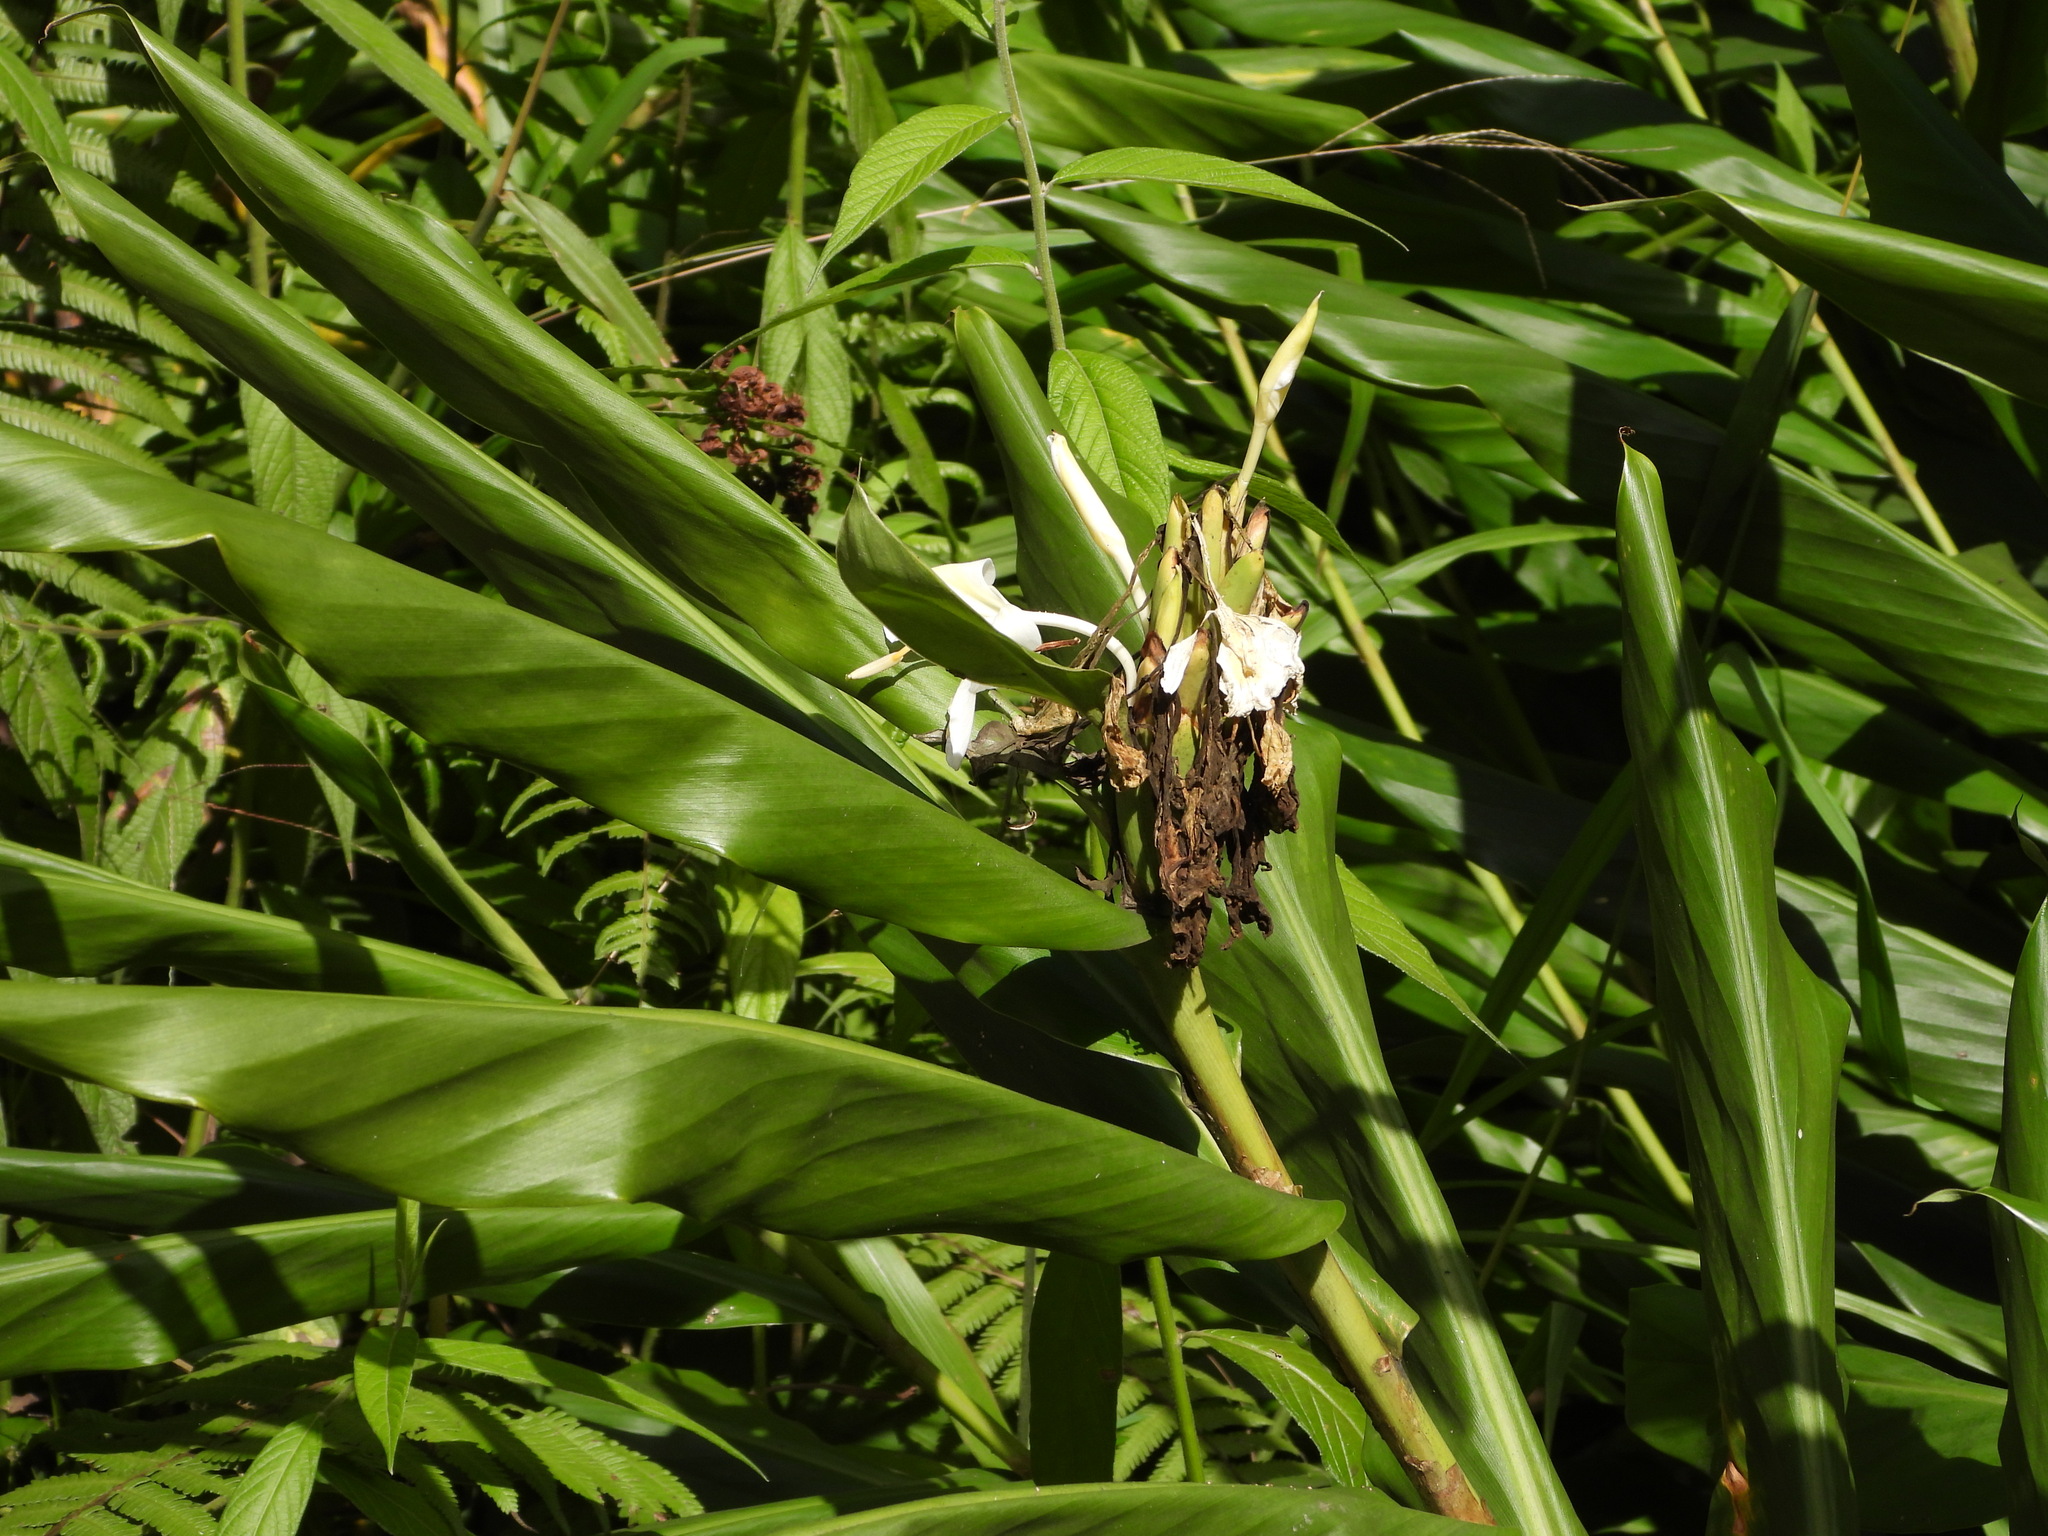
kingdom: Plantae
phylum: Tracheophyta
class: Liliopsida
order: Zingiberales
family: Zingiberaceae
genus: Hedychium
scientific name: Hedychium coronarium
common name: White garland-lily
